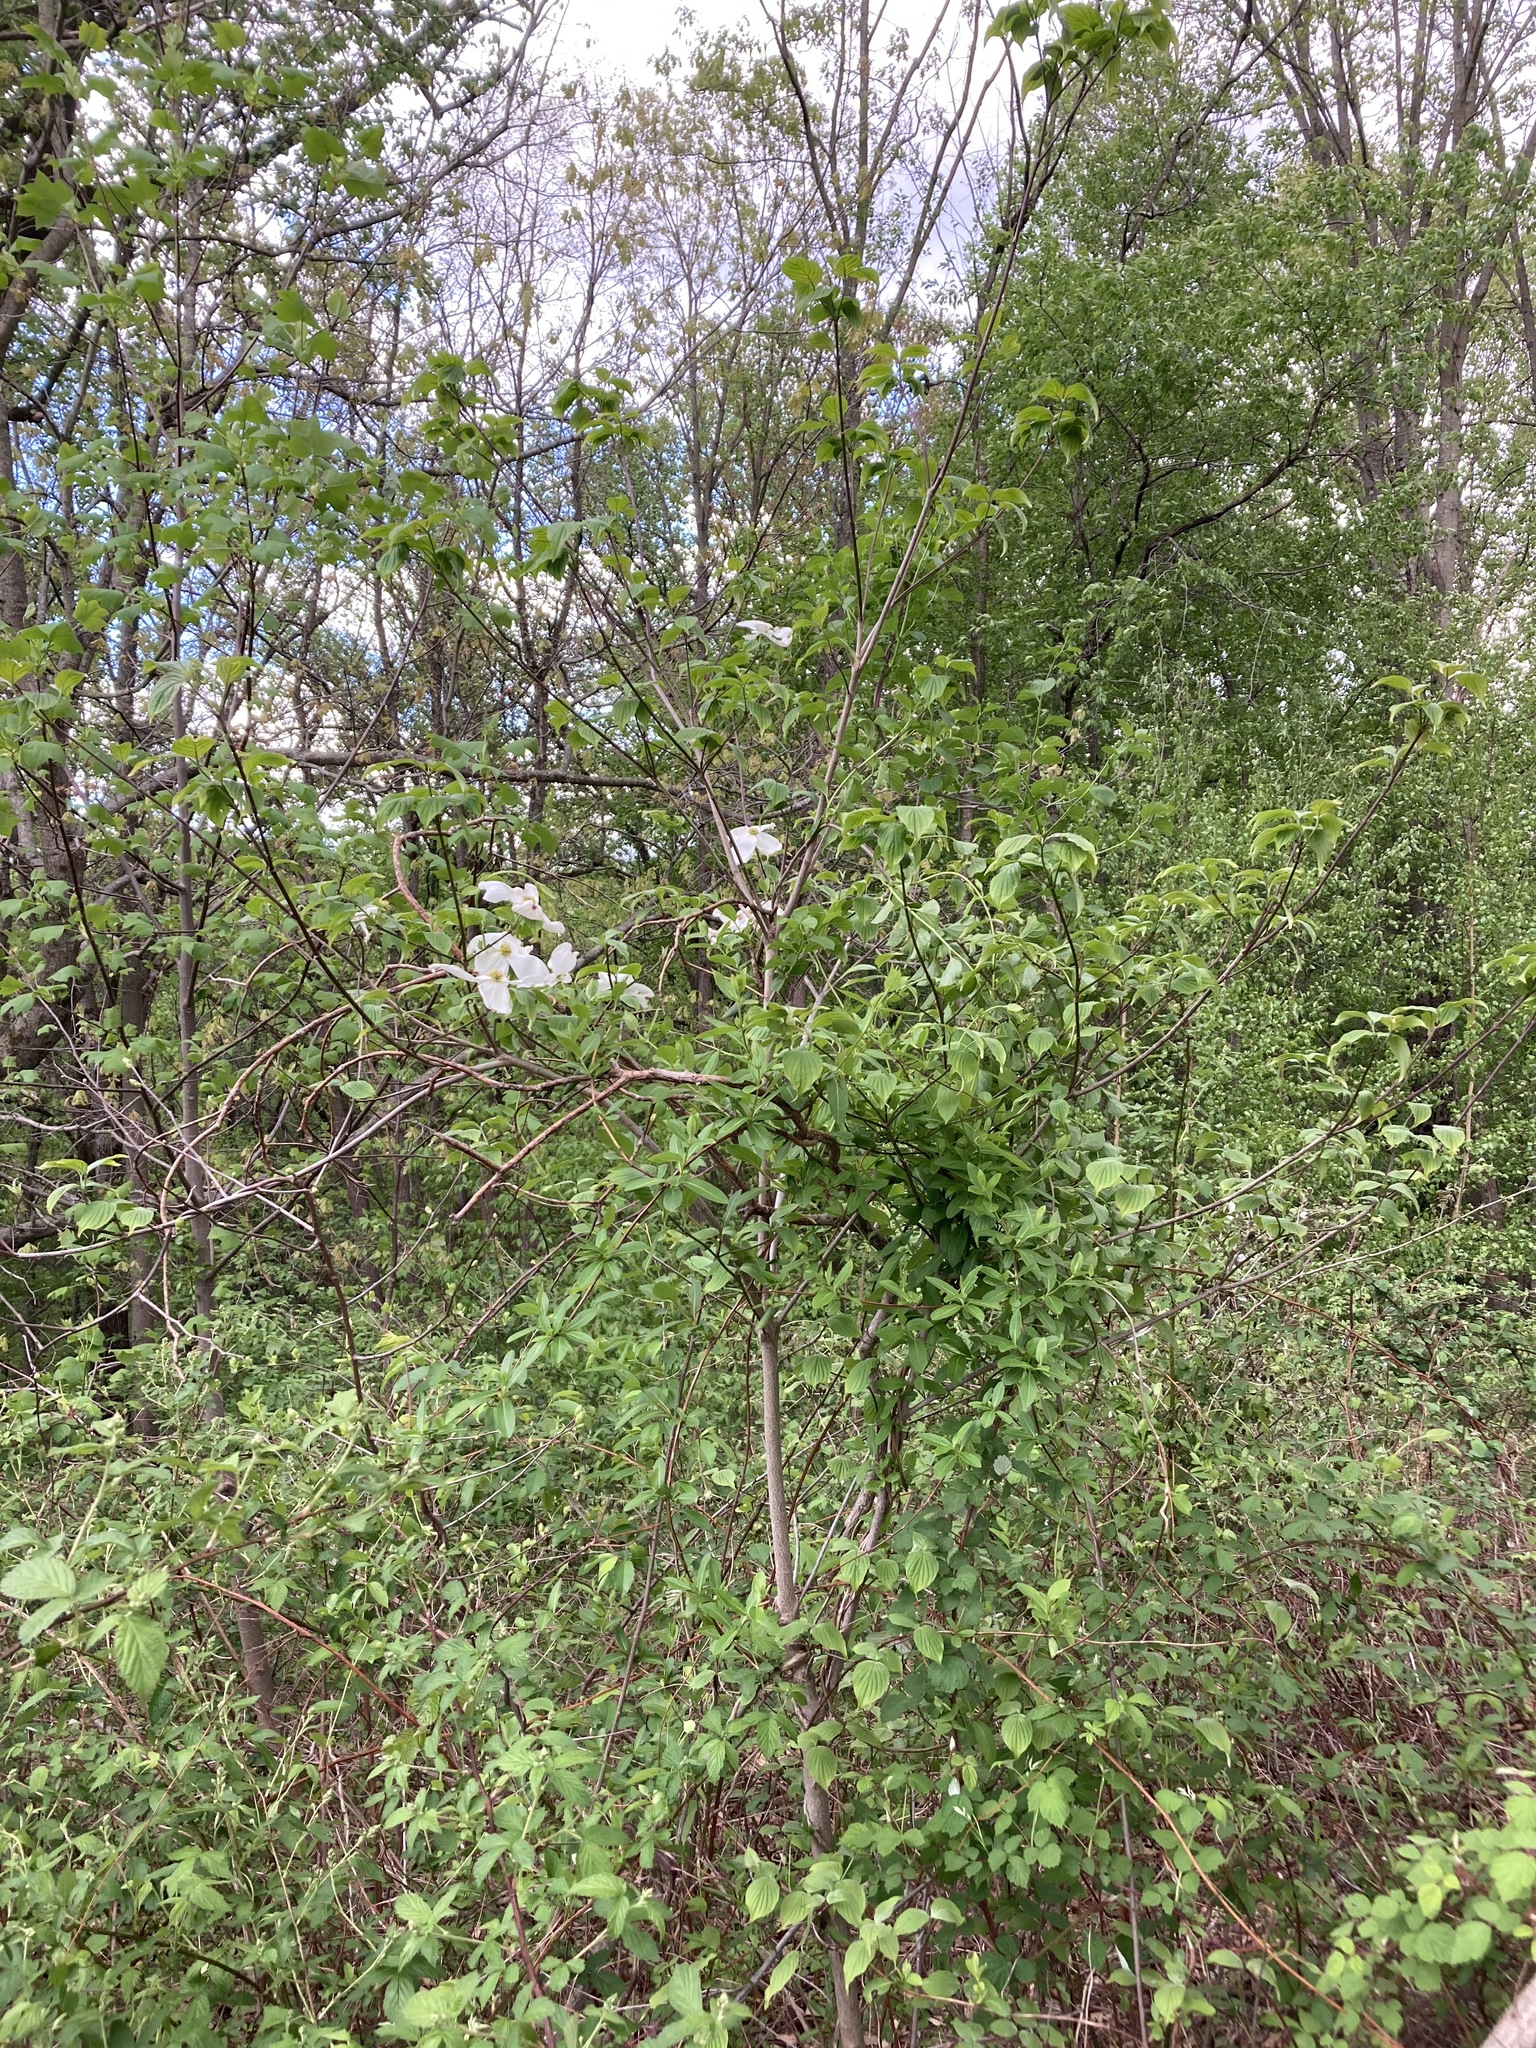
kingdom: Plantae
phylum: Tracheophyta
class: Magnoliopsida
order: Cornales
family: Cornaceae
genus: Cornus
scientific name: Cornus florida
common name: Flowering dogwood
